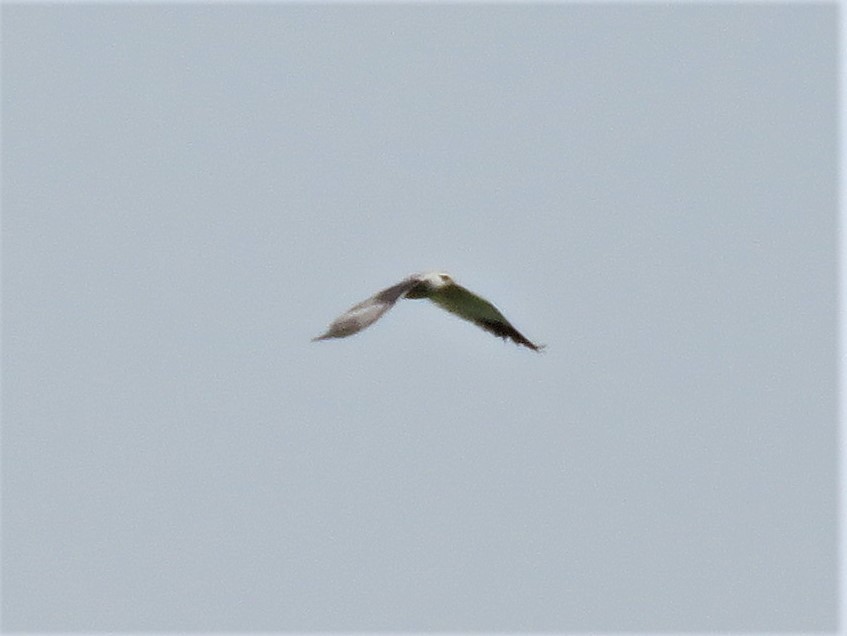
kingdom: Animalia
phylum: Chordata
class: Aves
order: Accipitriformes
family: Accipitridae
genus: Elanus
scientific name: Elanus caeruleus
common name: Black-winged kite
